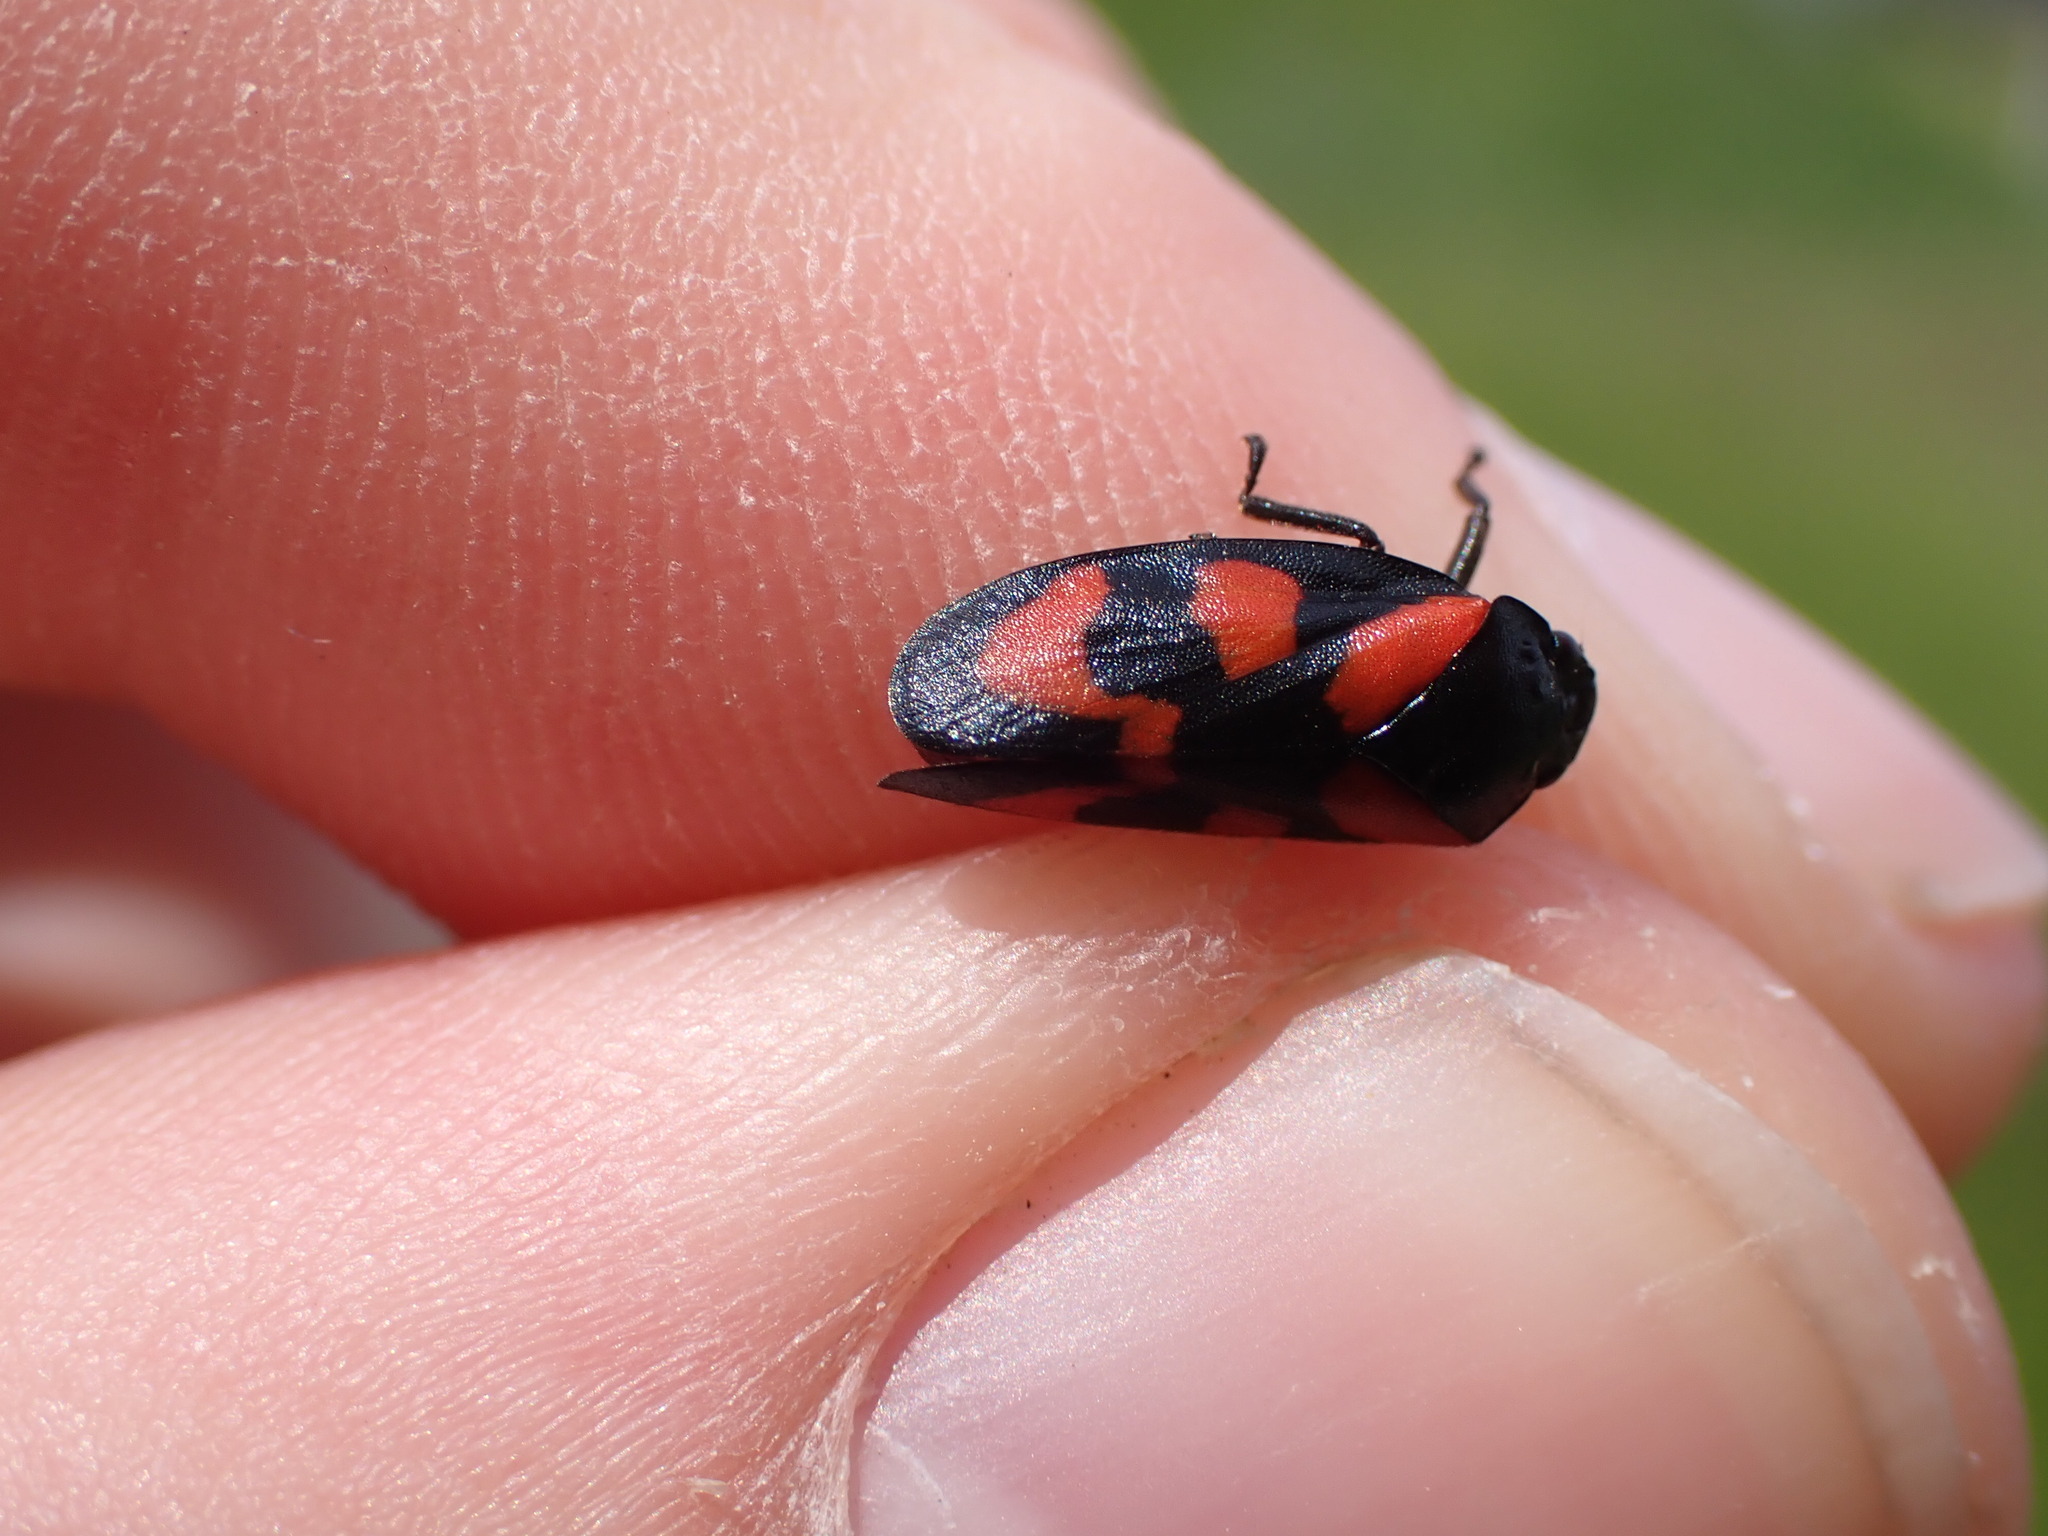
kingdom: Animalia
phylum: Arthropoda
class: Insecta
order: Hemiptera
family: Cercopidae
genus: Cercopis
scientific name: Cercopis vulnerata
